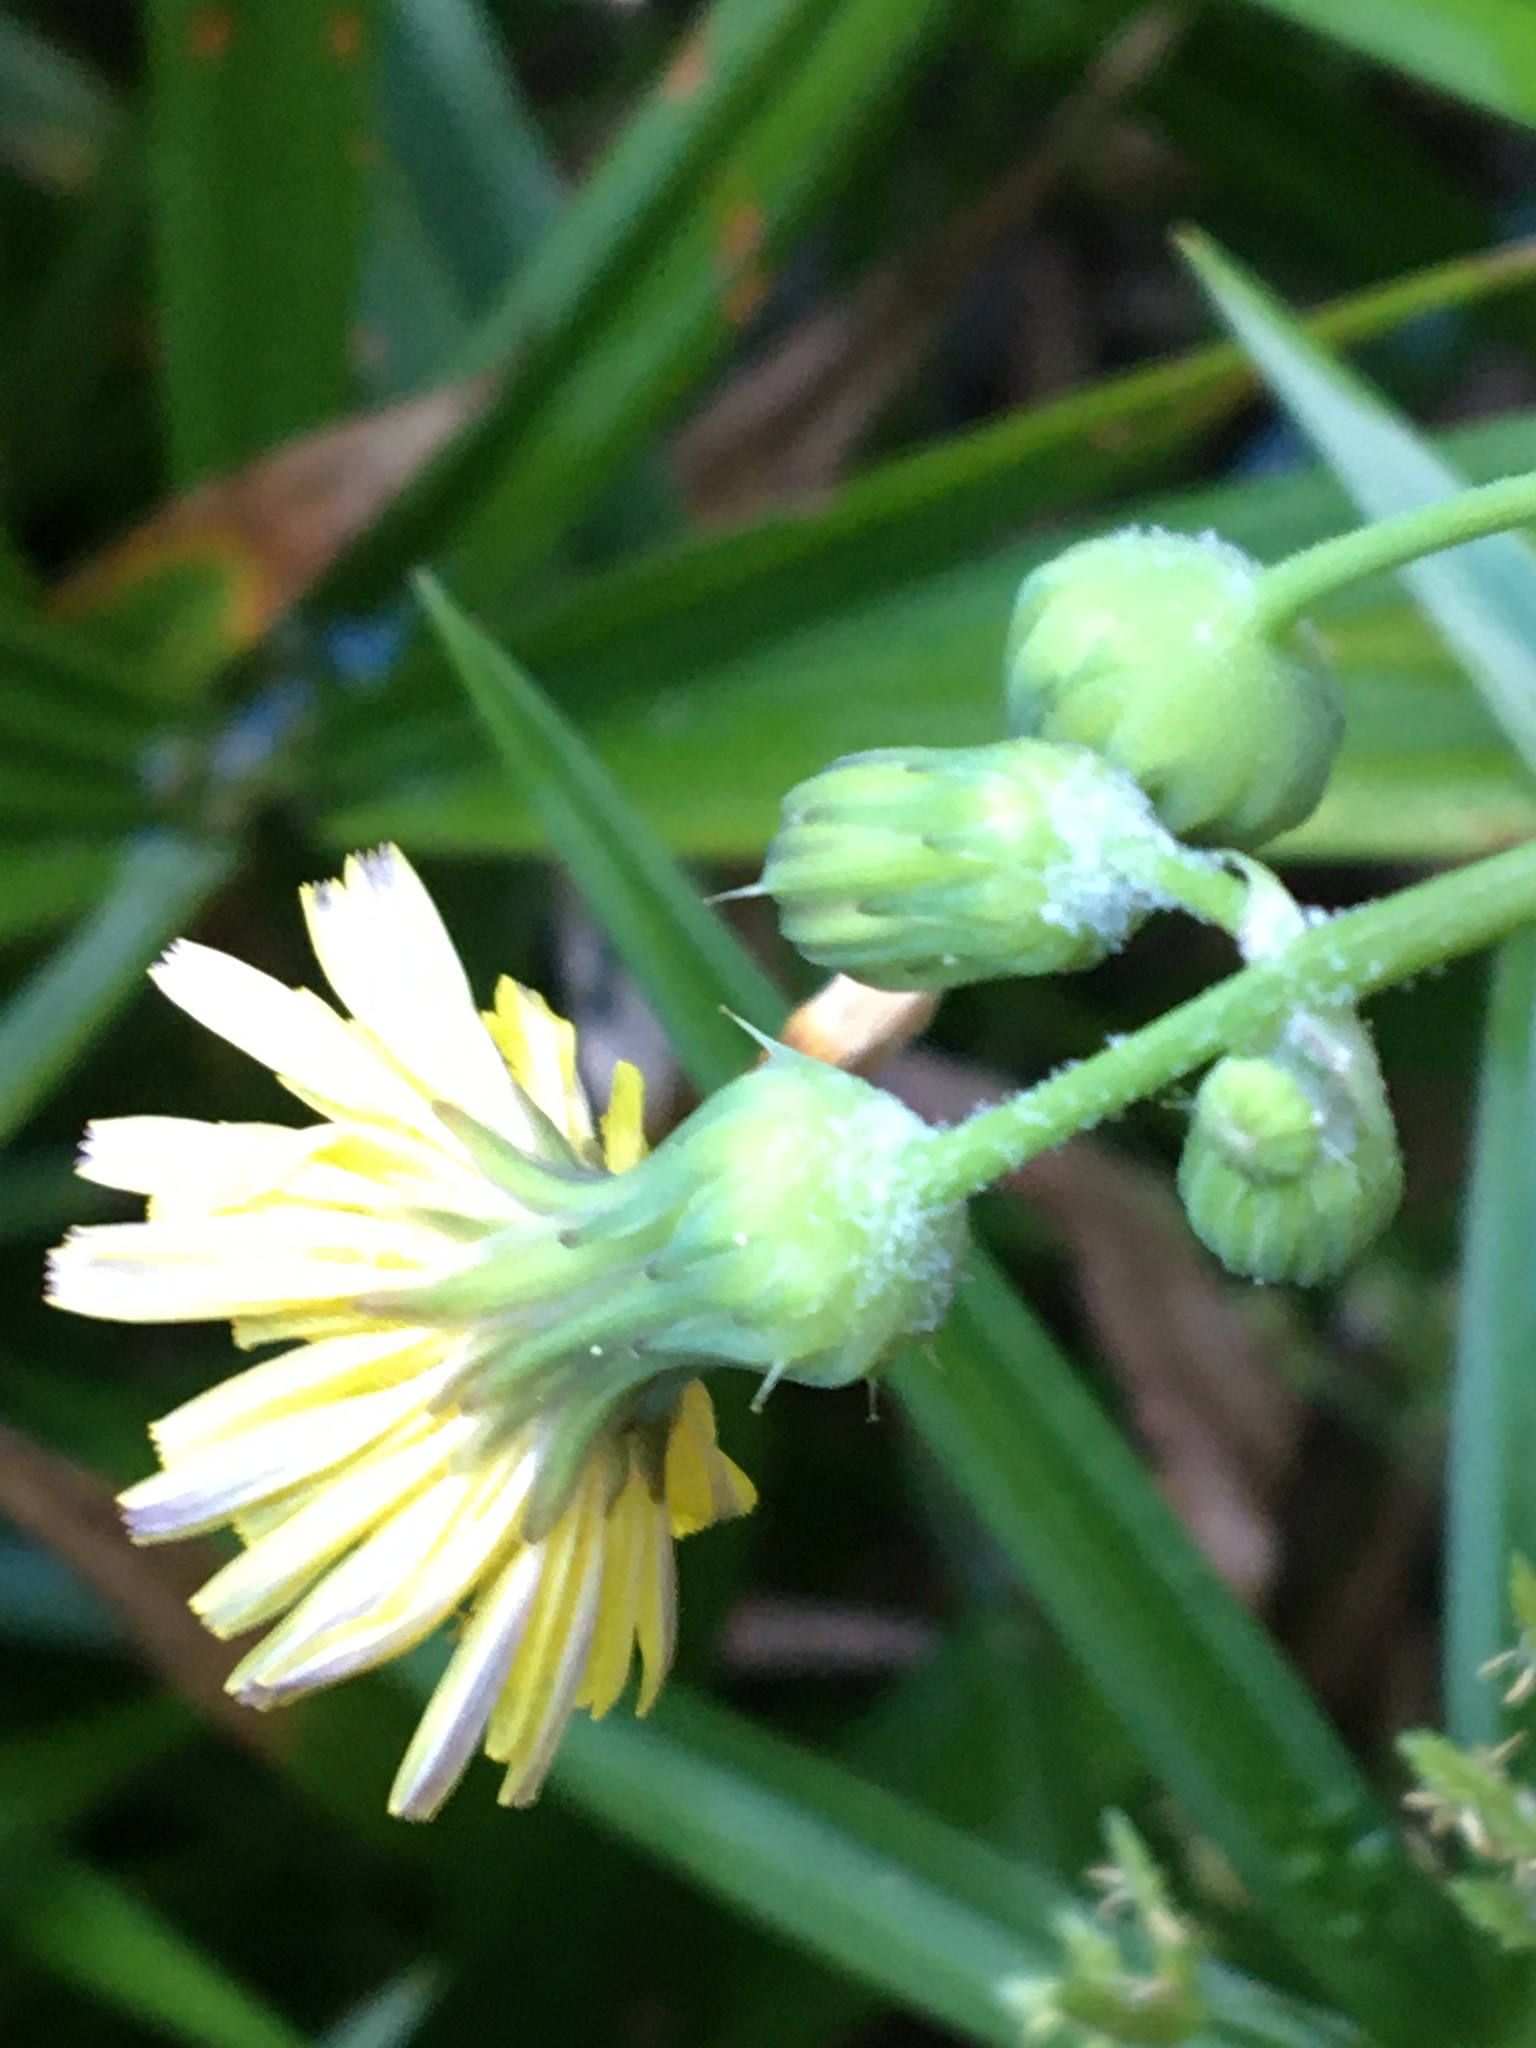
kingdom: Plantae
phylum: Tracheophyta
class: Magnoliopsida
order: Asterales
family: Asteraceae
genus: Sonchus
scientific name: Sonchus oleraceus
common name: Common sowthistle
